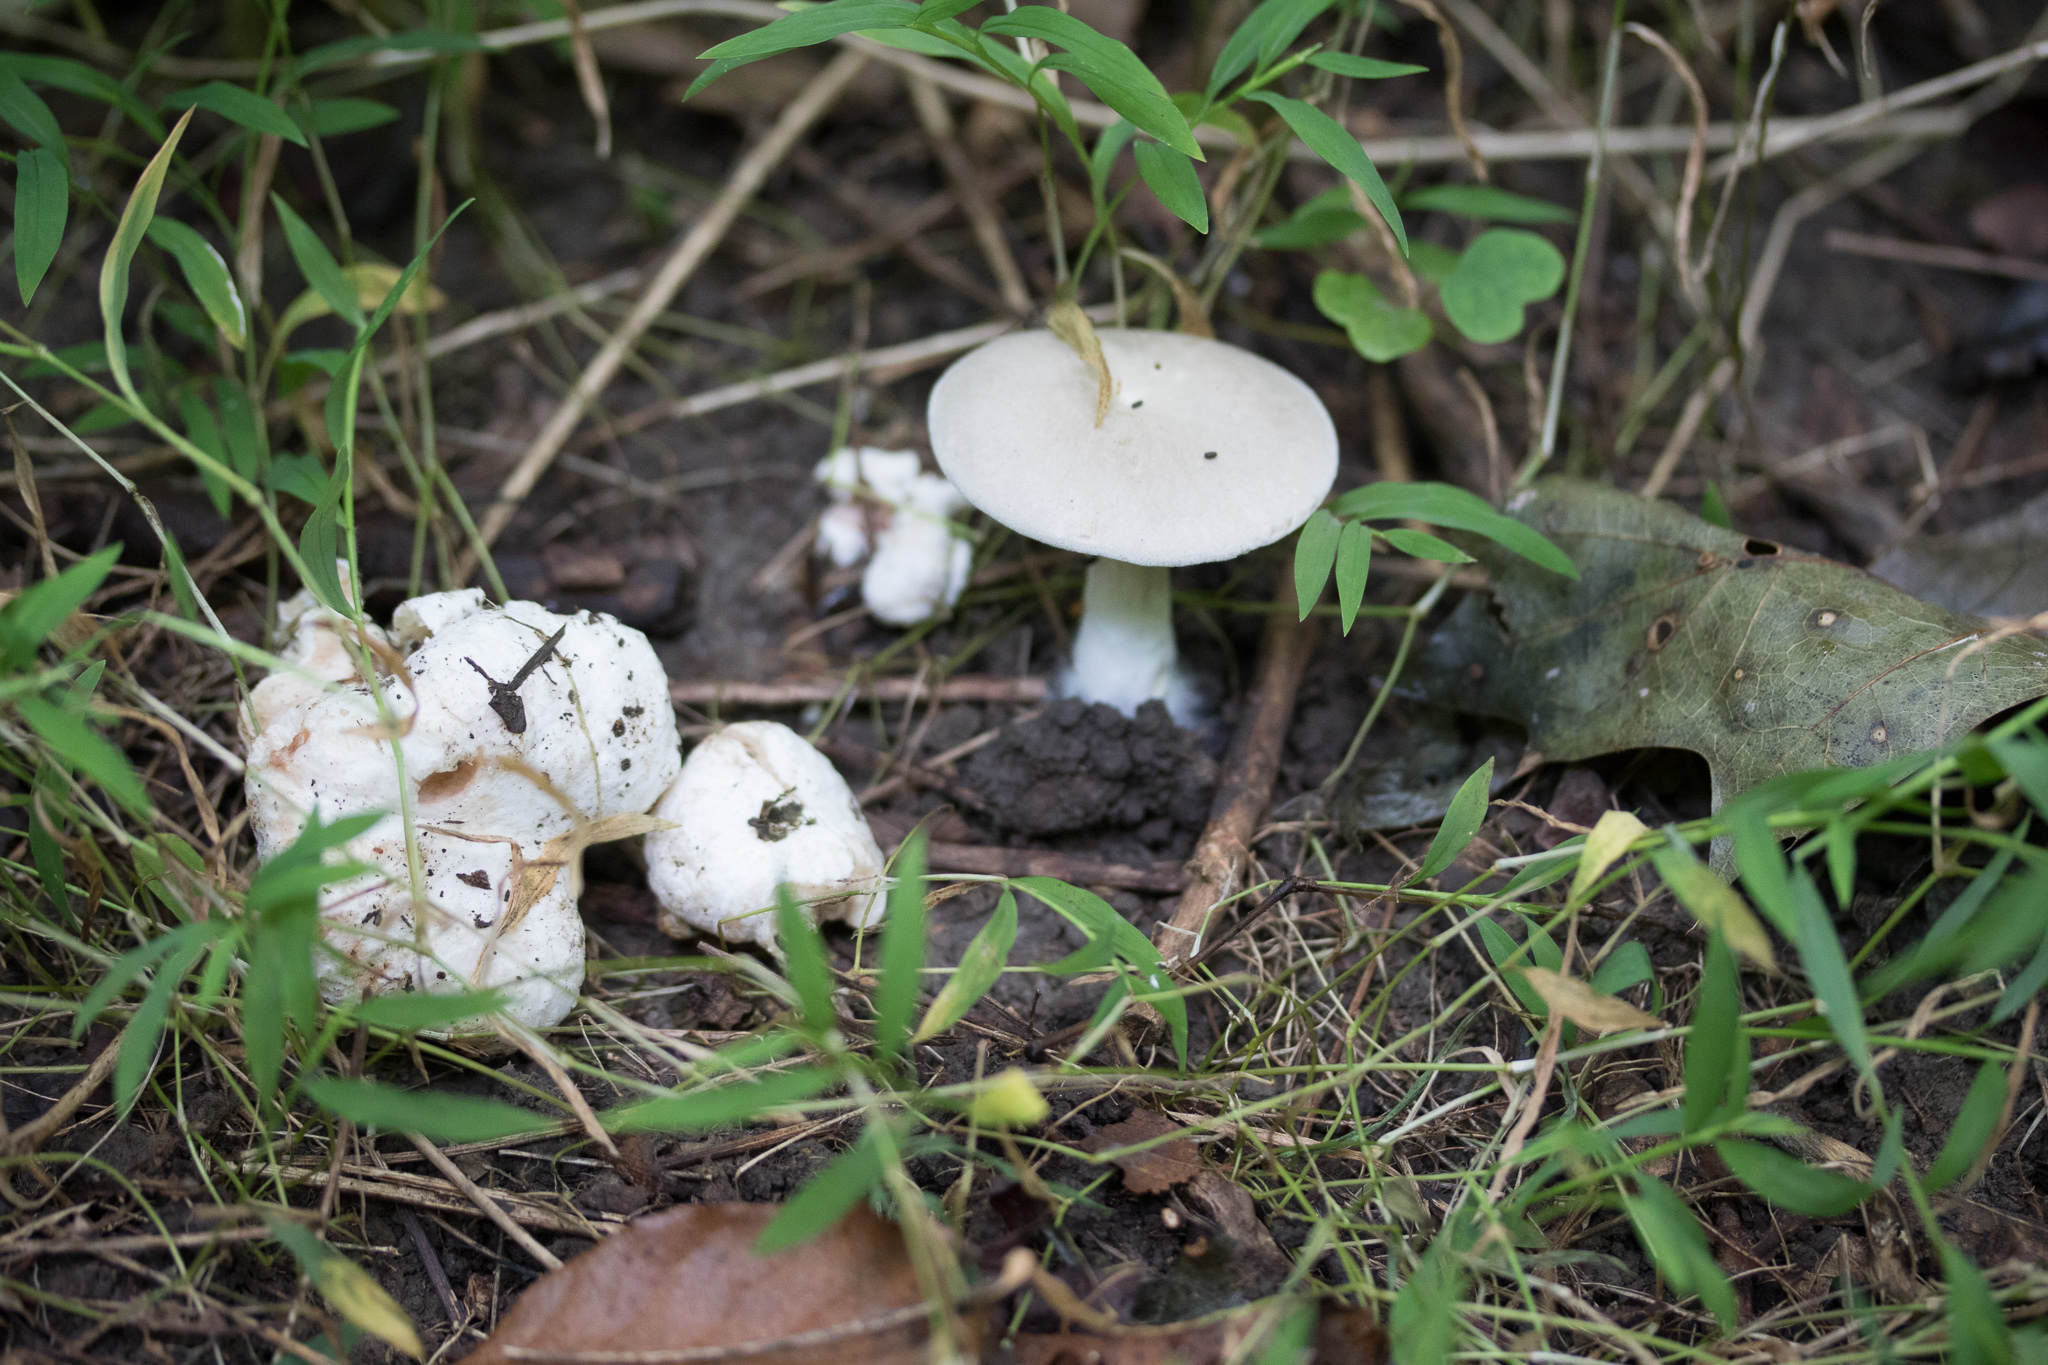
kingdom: Fungi
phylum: Basidiomycota
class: Agaricomycetes
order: Agaricales
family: Entolomataceae
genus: Entoloma
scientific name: Entoloma abortivum
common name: Aborted entoloma
